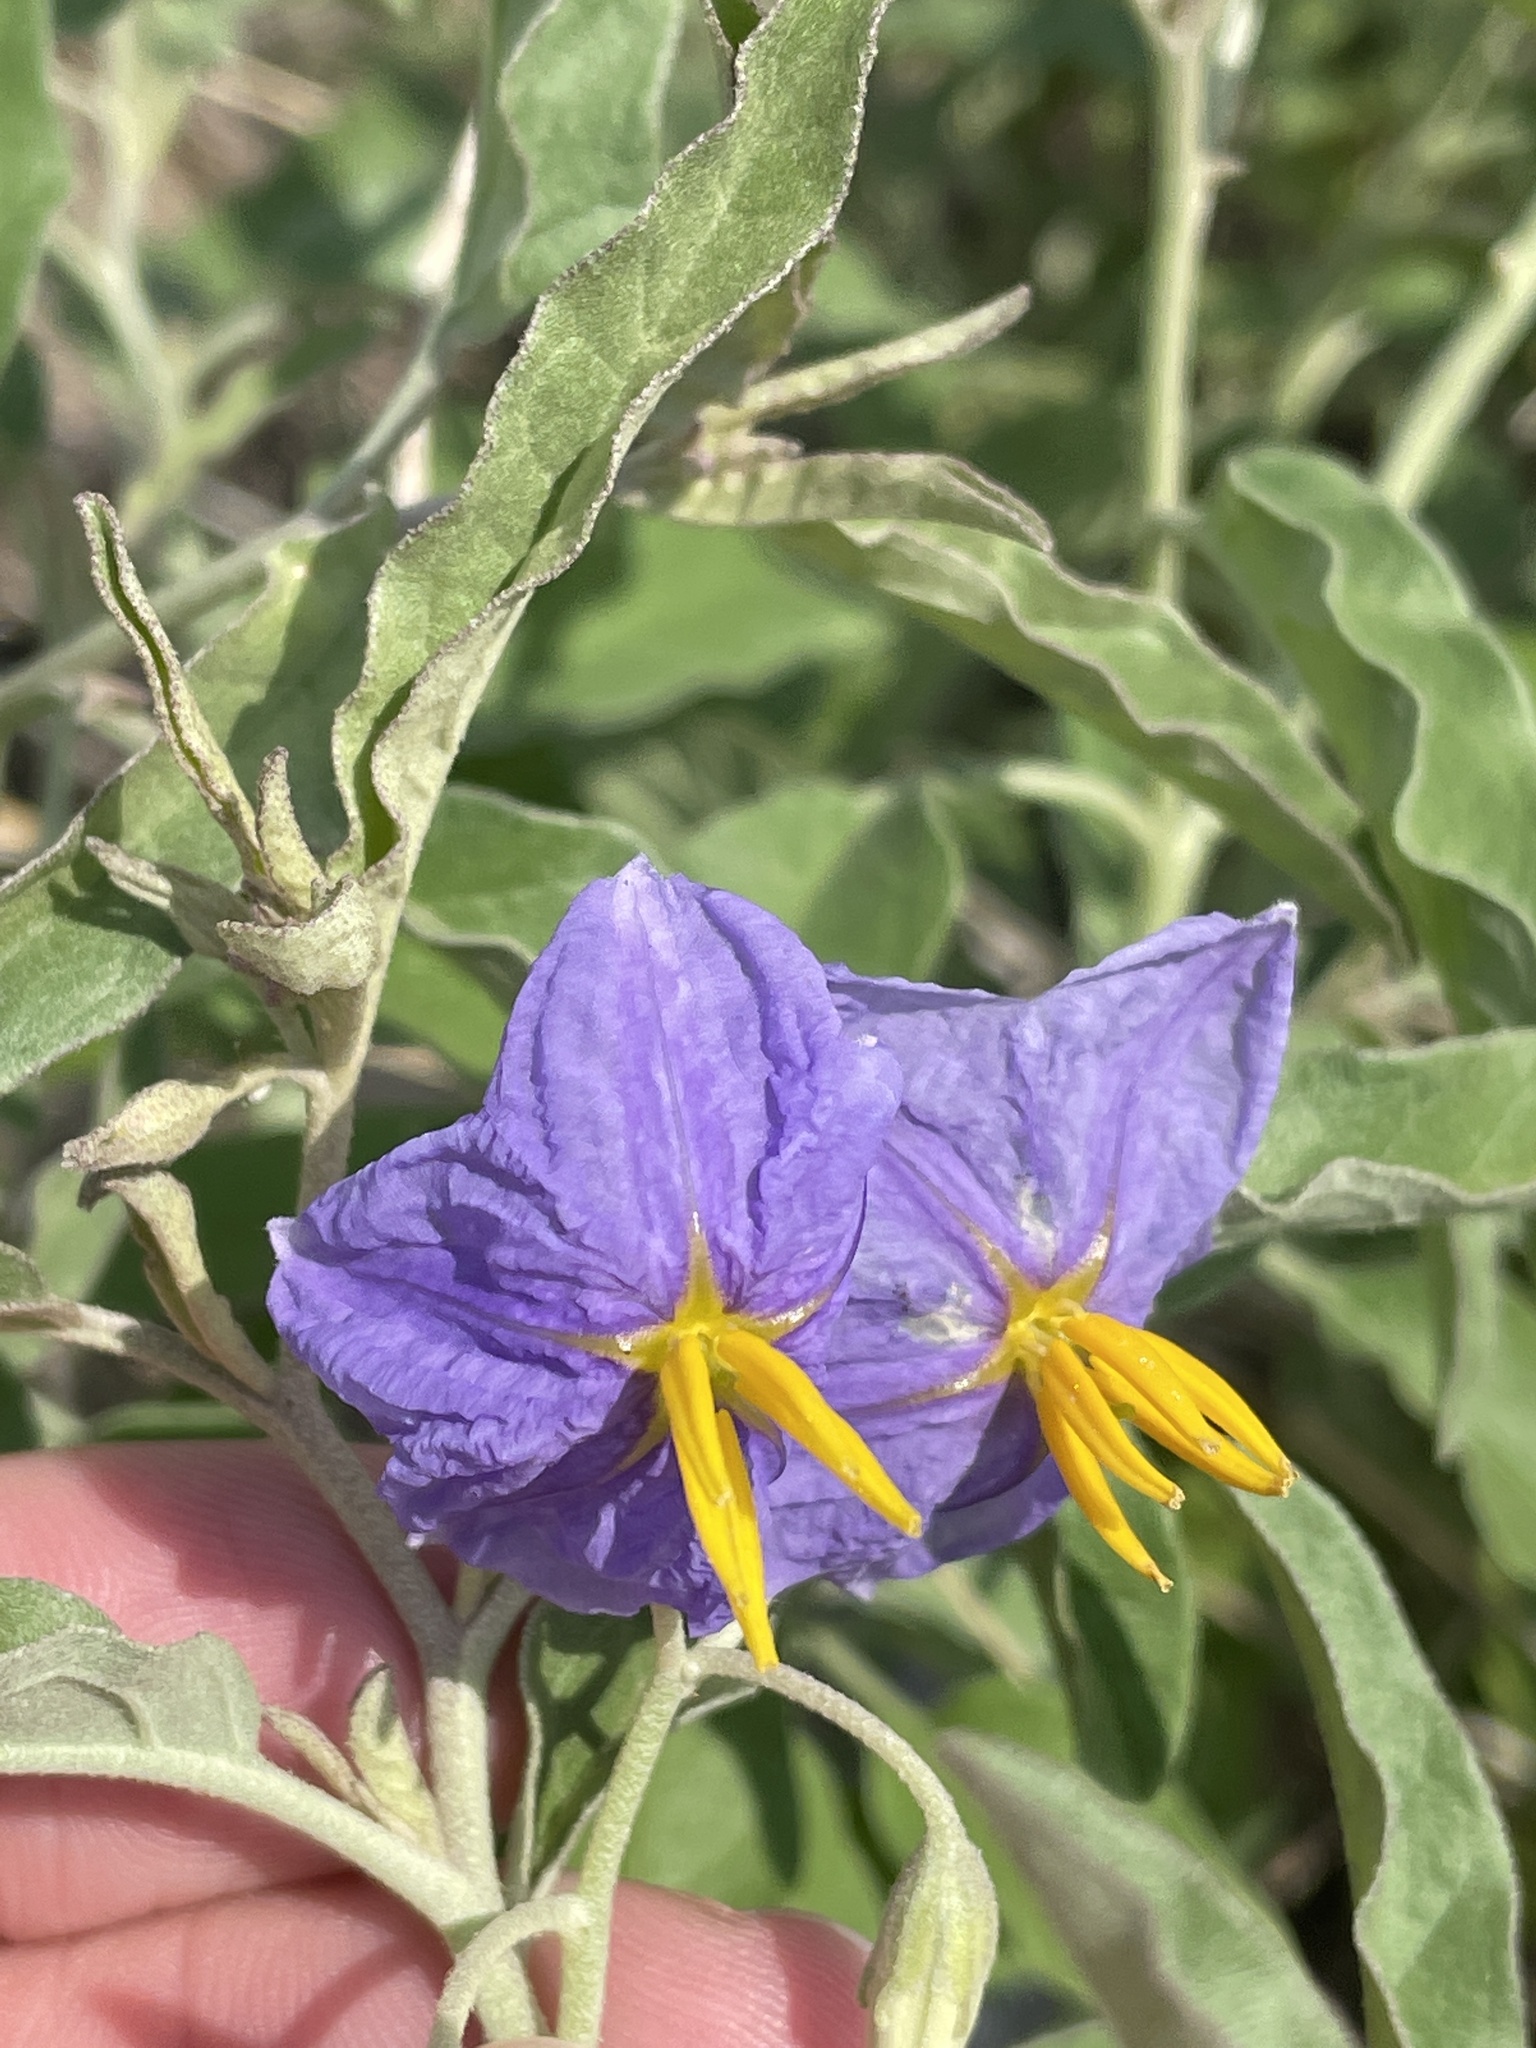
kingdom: Plantae
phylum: Tracheophyta
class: Magnoliopsida
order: Solanales
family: Solanaceae
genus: Solanum
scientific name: Solanum elaeagnifolium
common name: Silverleaf nightshade
